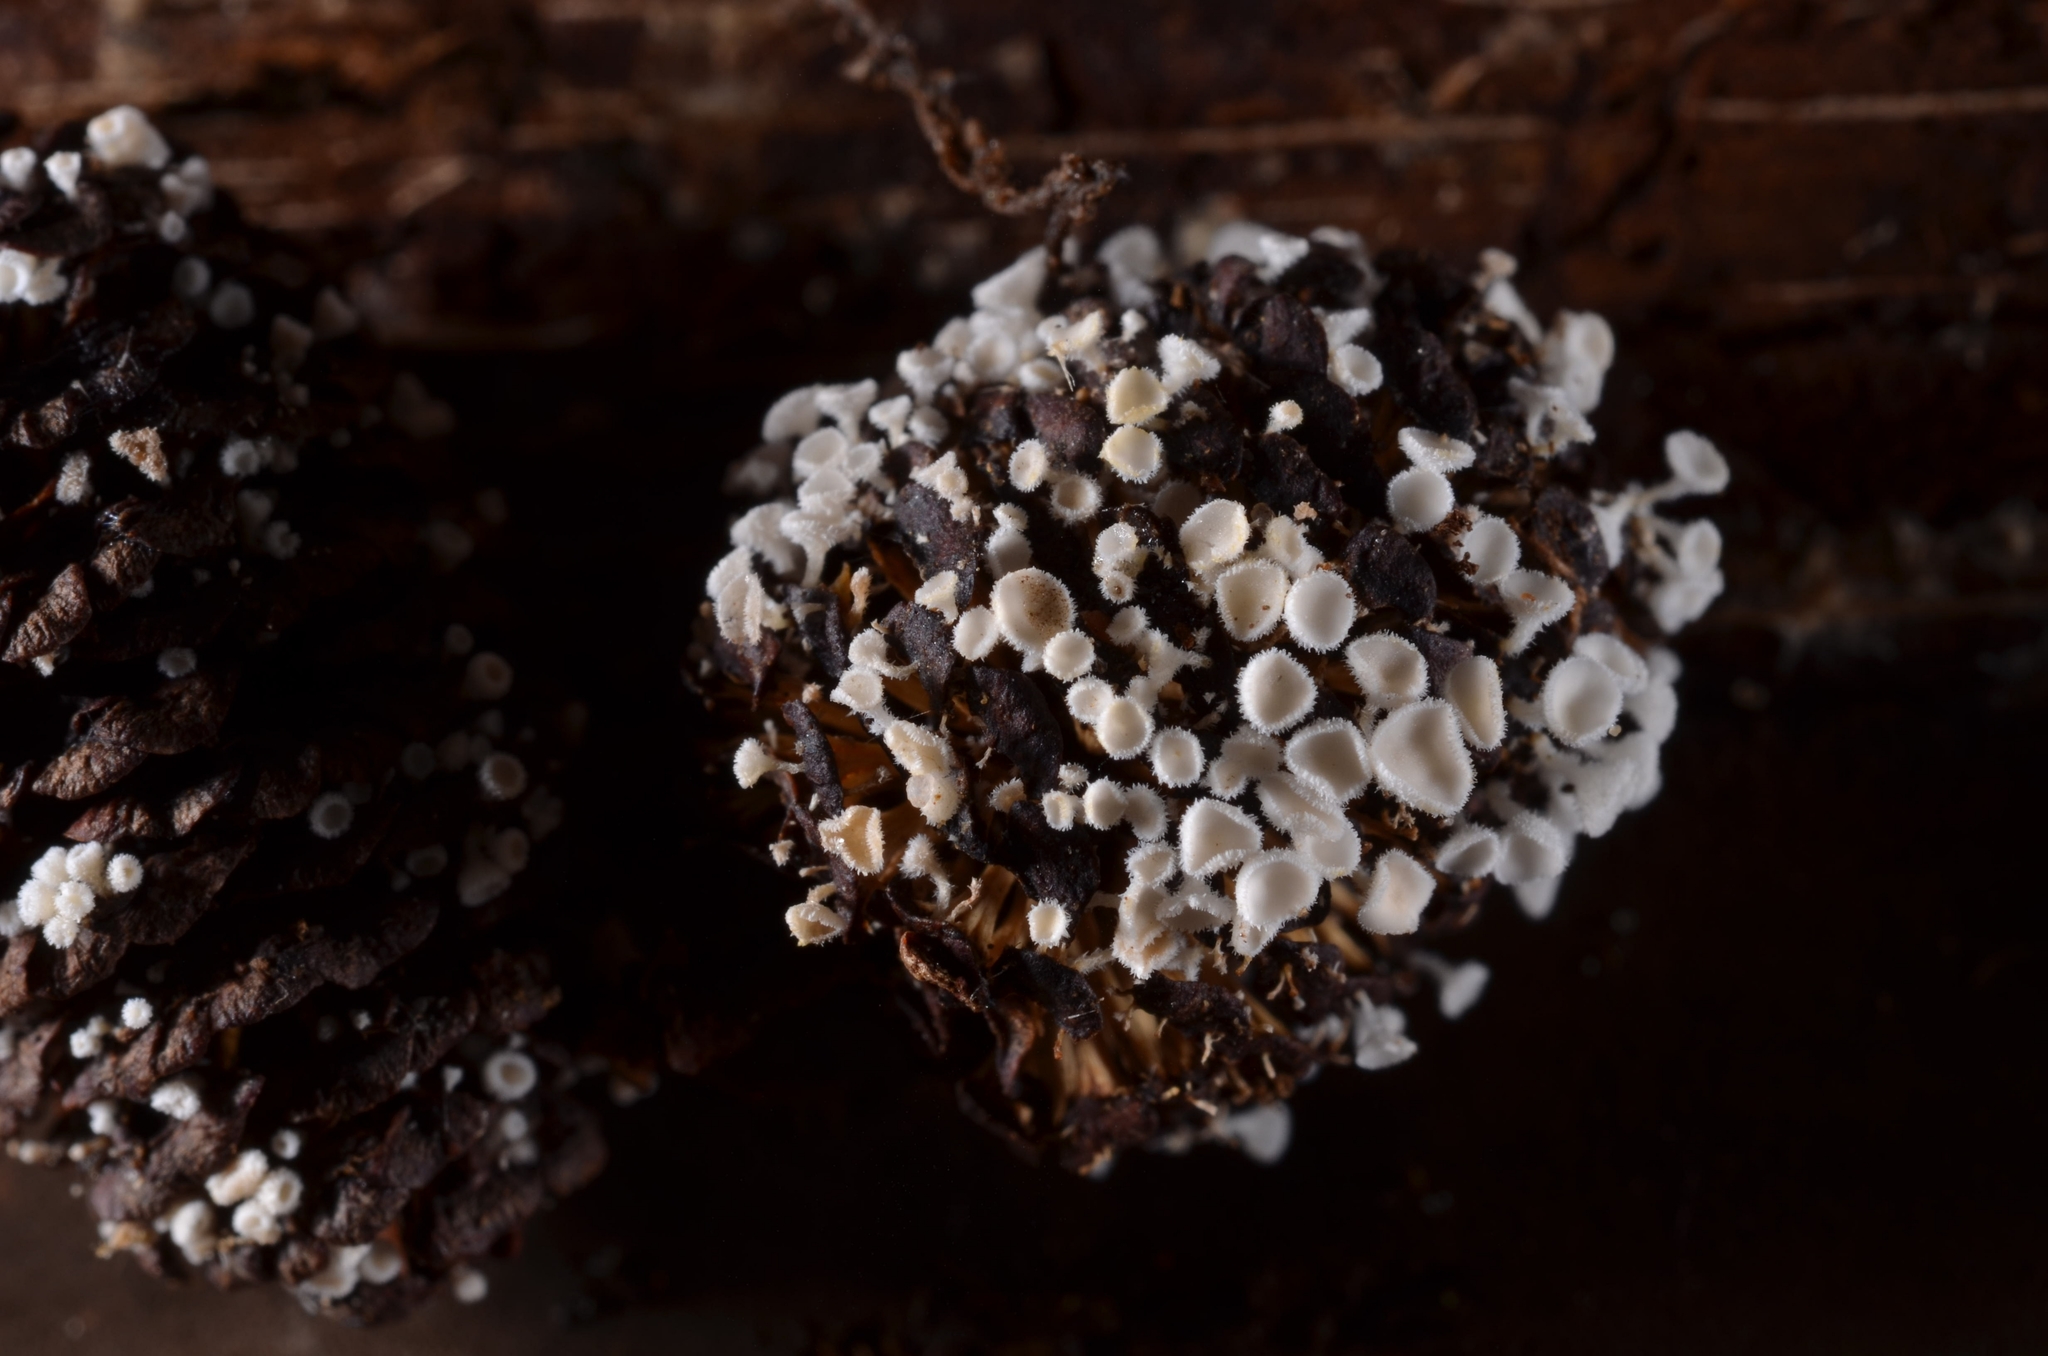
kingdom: Fungi
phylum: Ascomycota
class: Leotiomycetes
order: Helotiales
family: Lachnaceae
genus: Lachnum
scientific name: Lachnum virgineum
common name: Snowy disco
